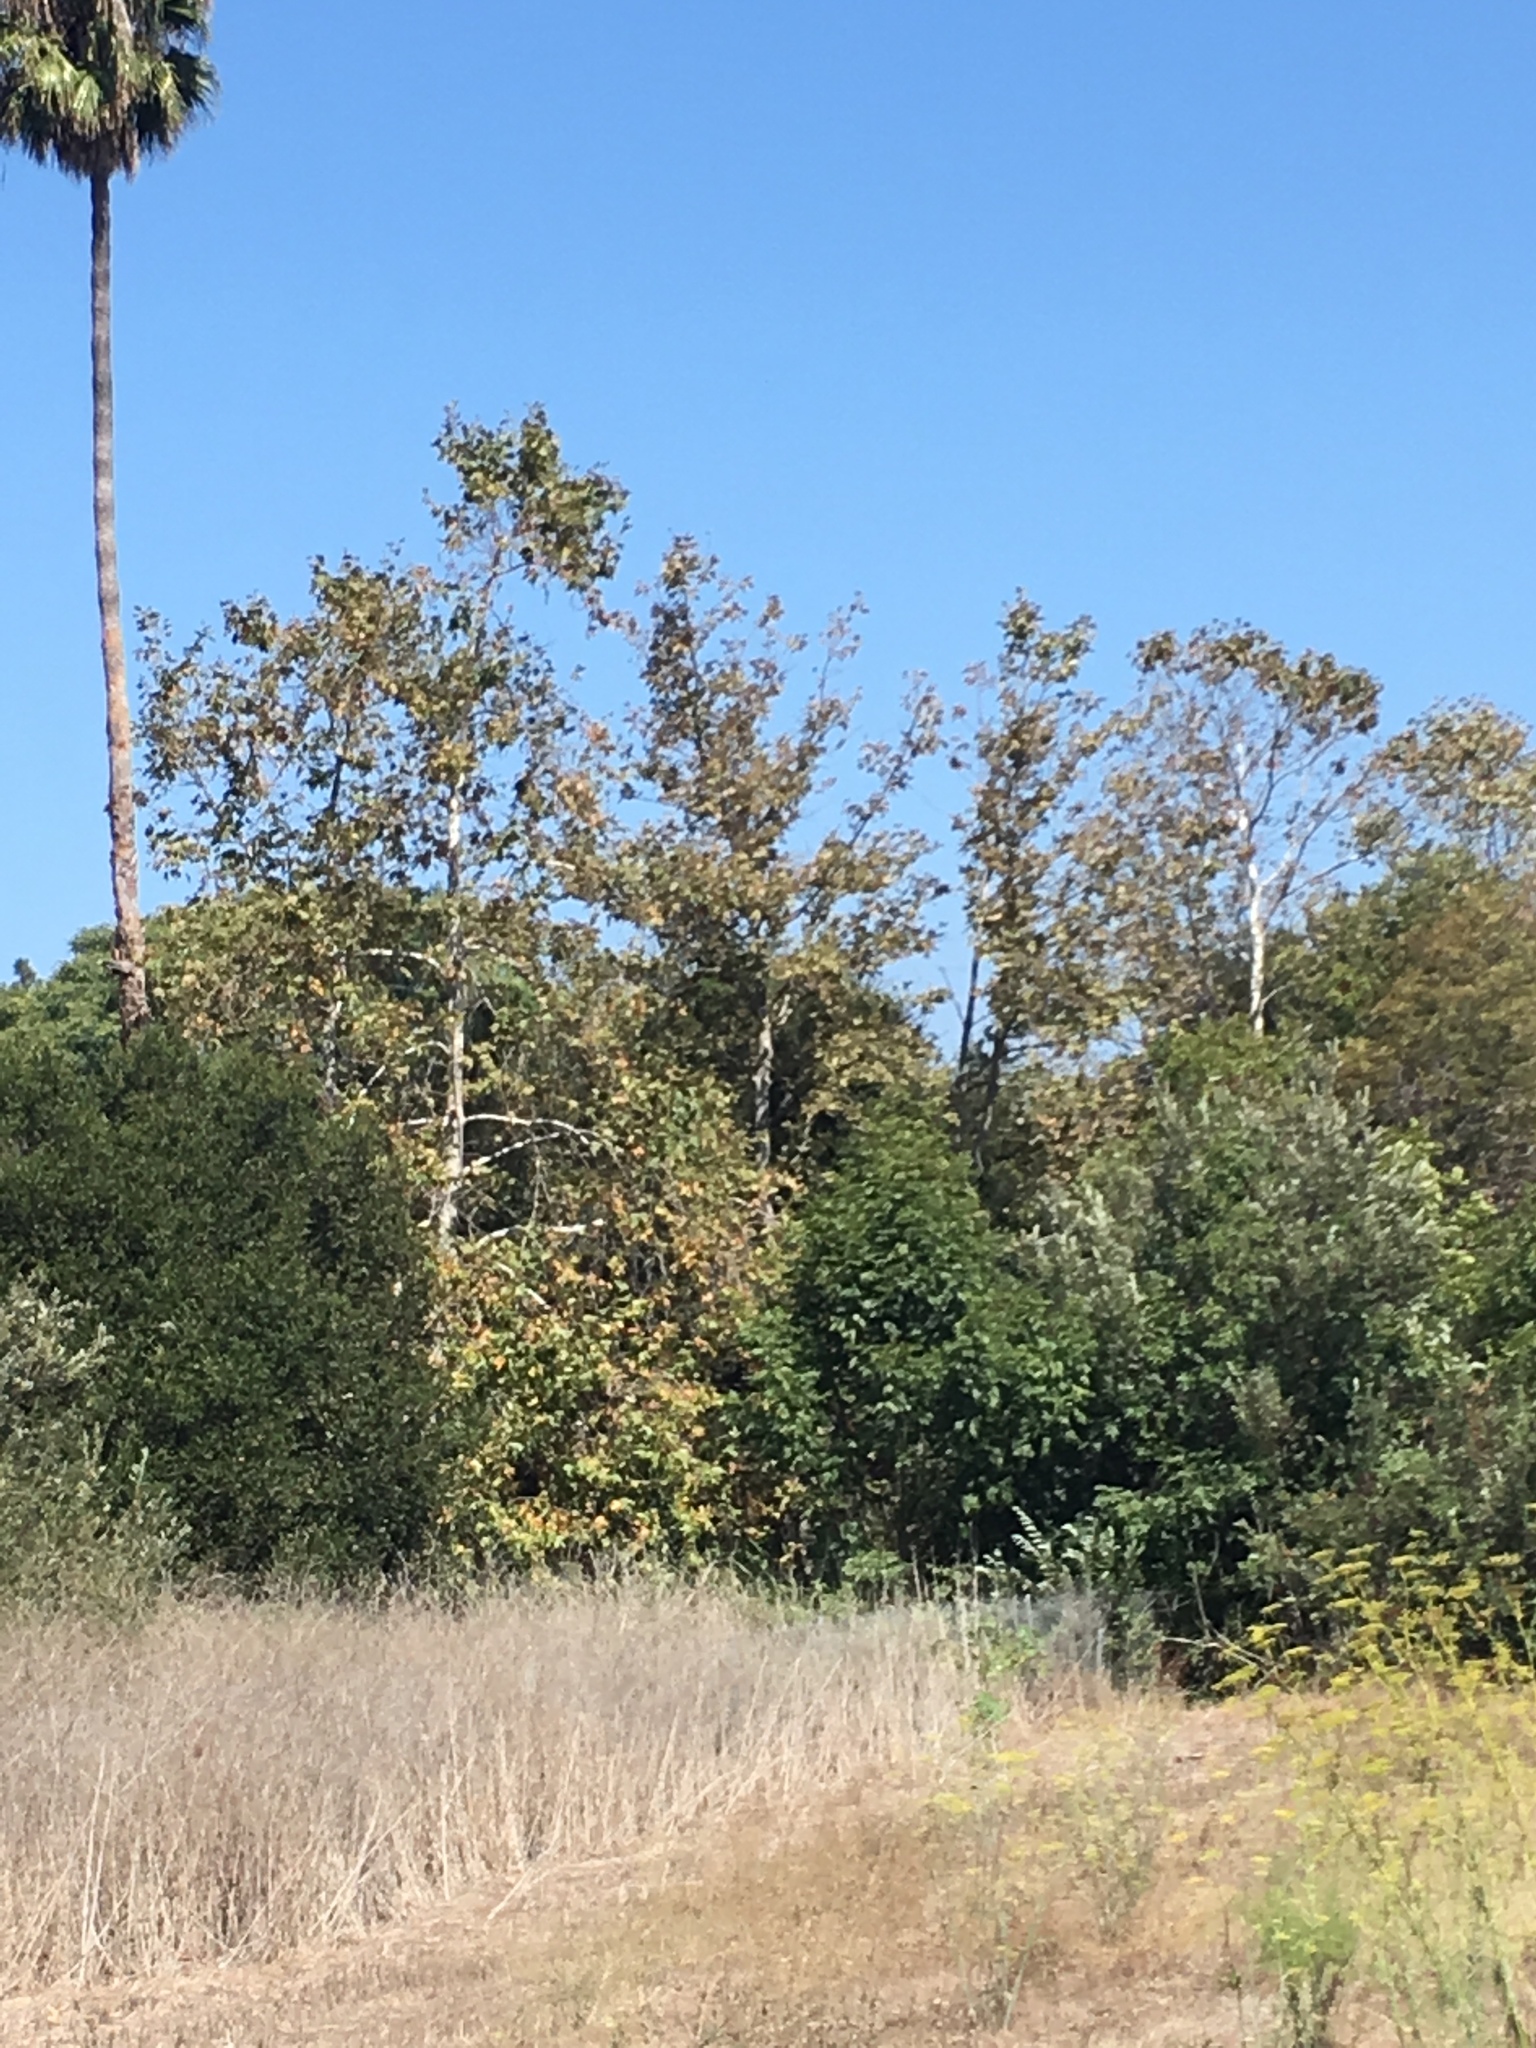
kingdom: Plantae
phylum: Tracheophyta
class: Magnoliopsida
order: Proteales
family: Platanaceae
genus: Platanus
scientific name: Platanus racemosa
